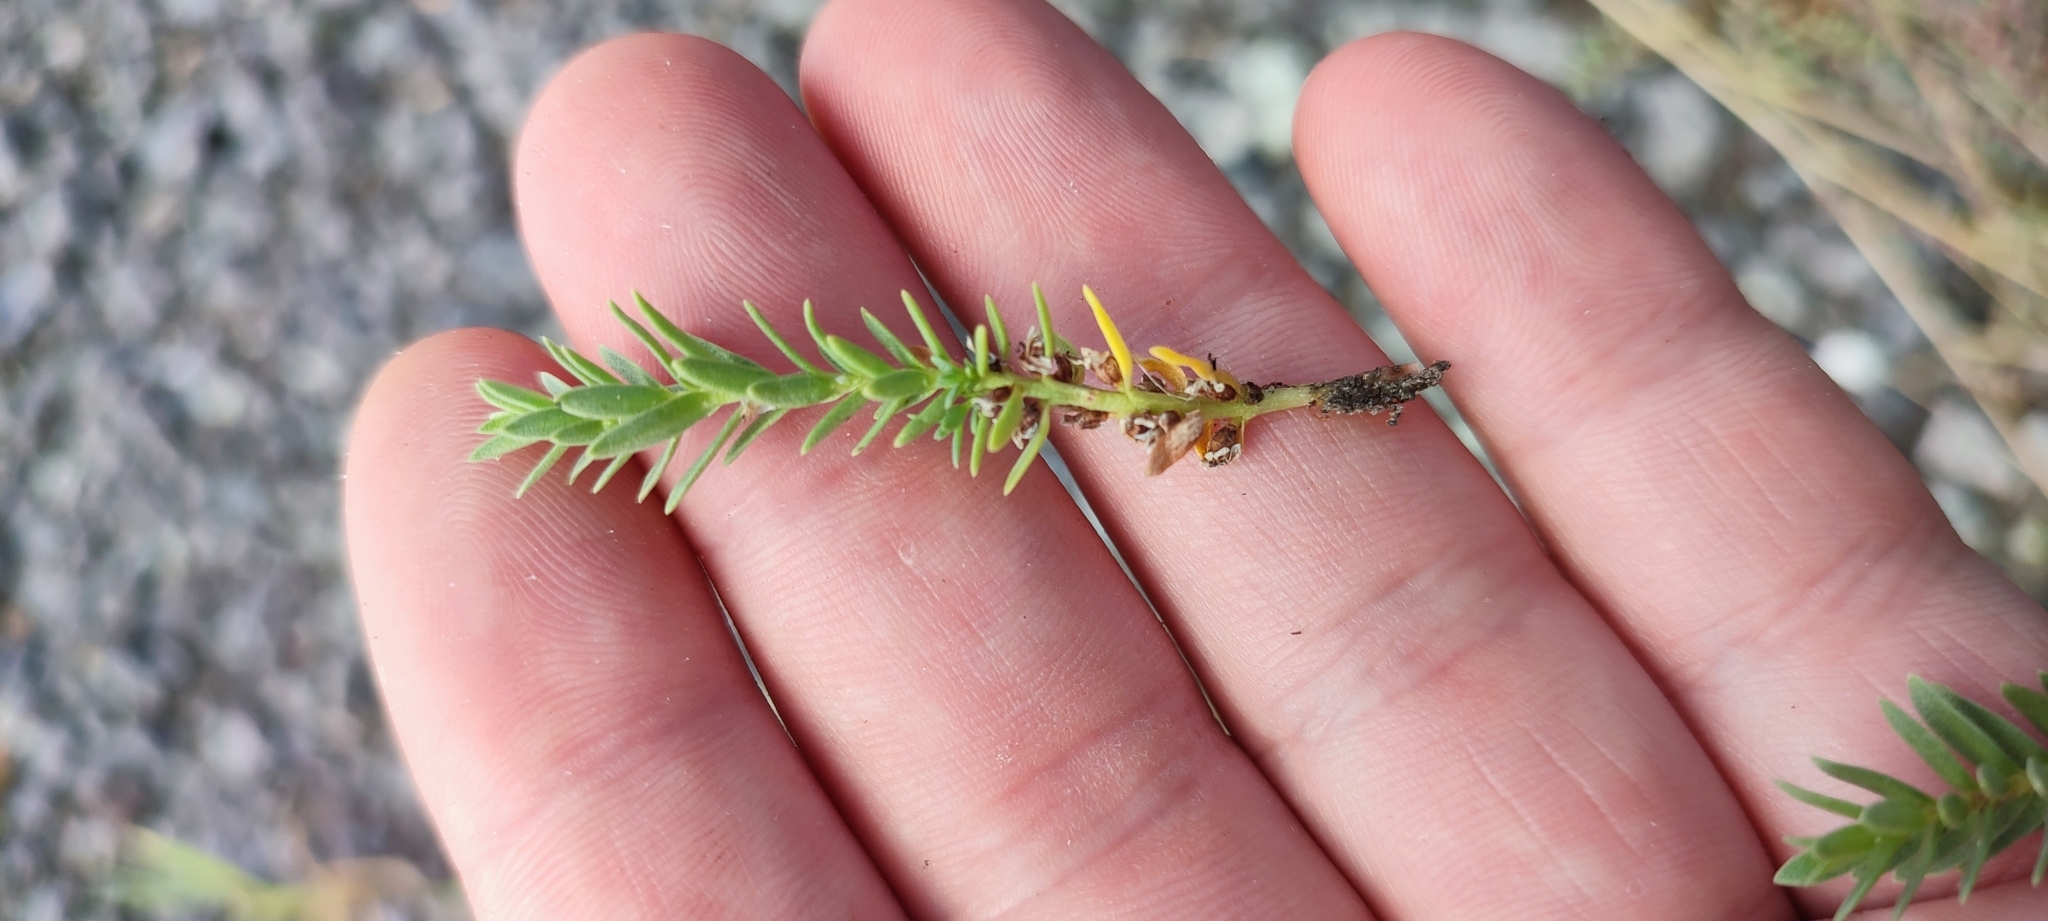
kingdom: Plantae
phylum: Tracheophyta
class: Magnoliopsida
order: Ericales
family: Primulaceae
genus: Lysimachia
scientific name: Lysimachia maritima
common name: Sea milkwort
